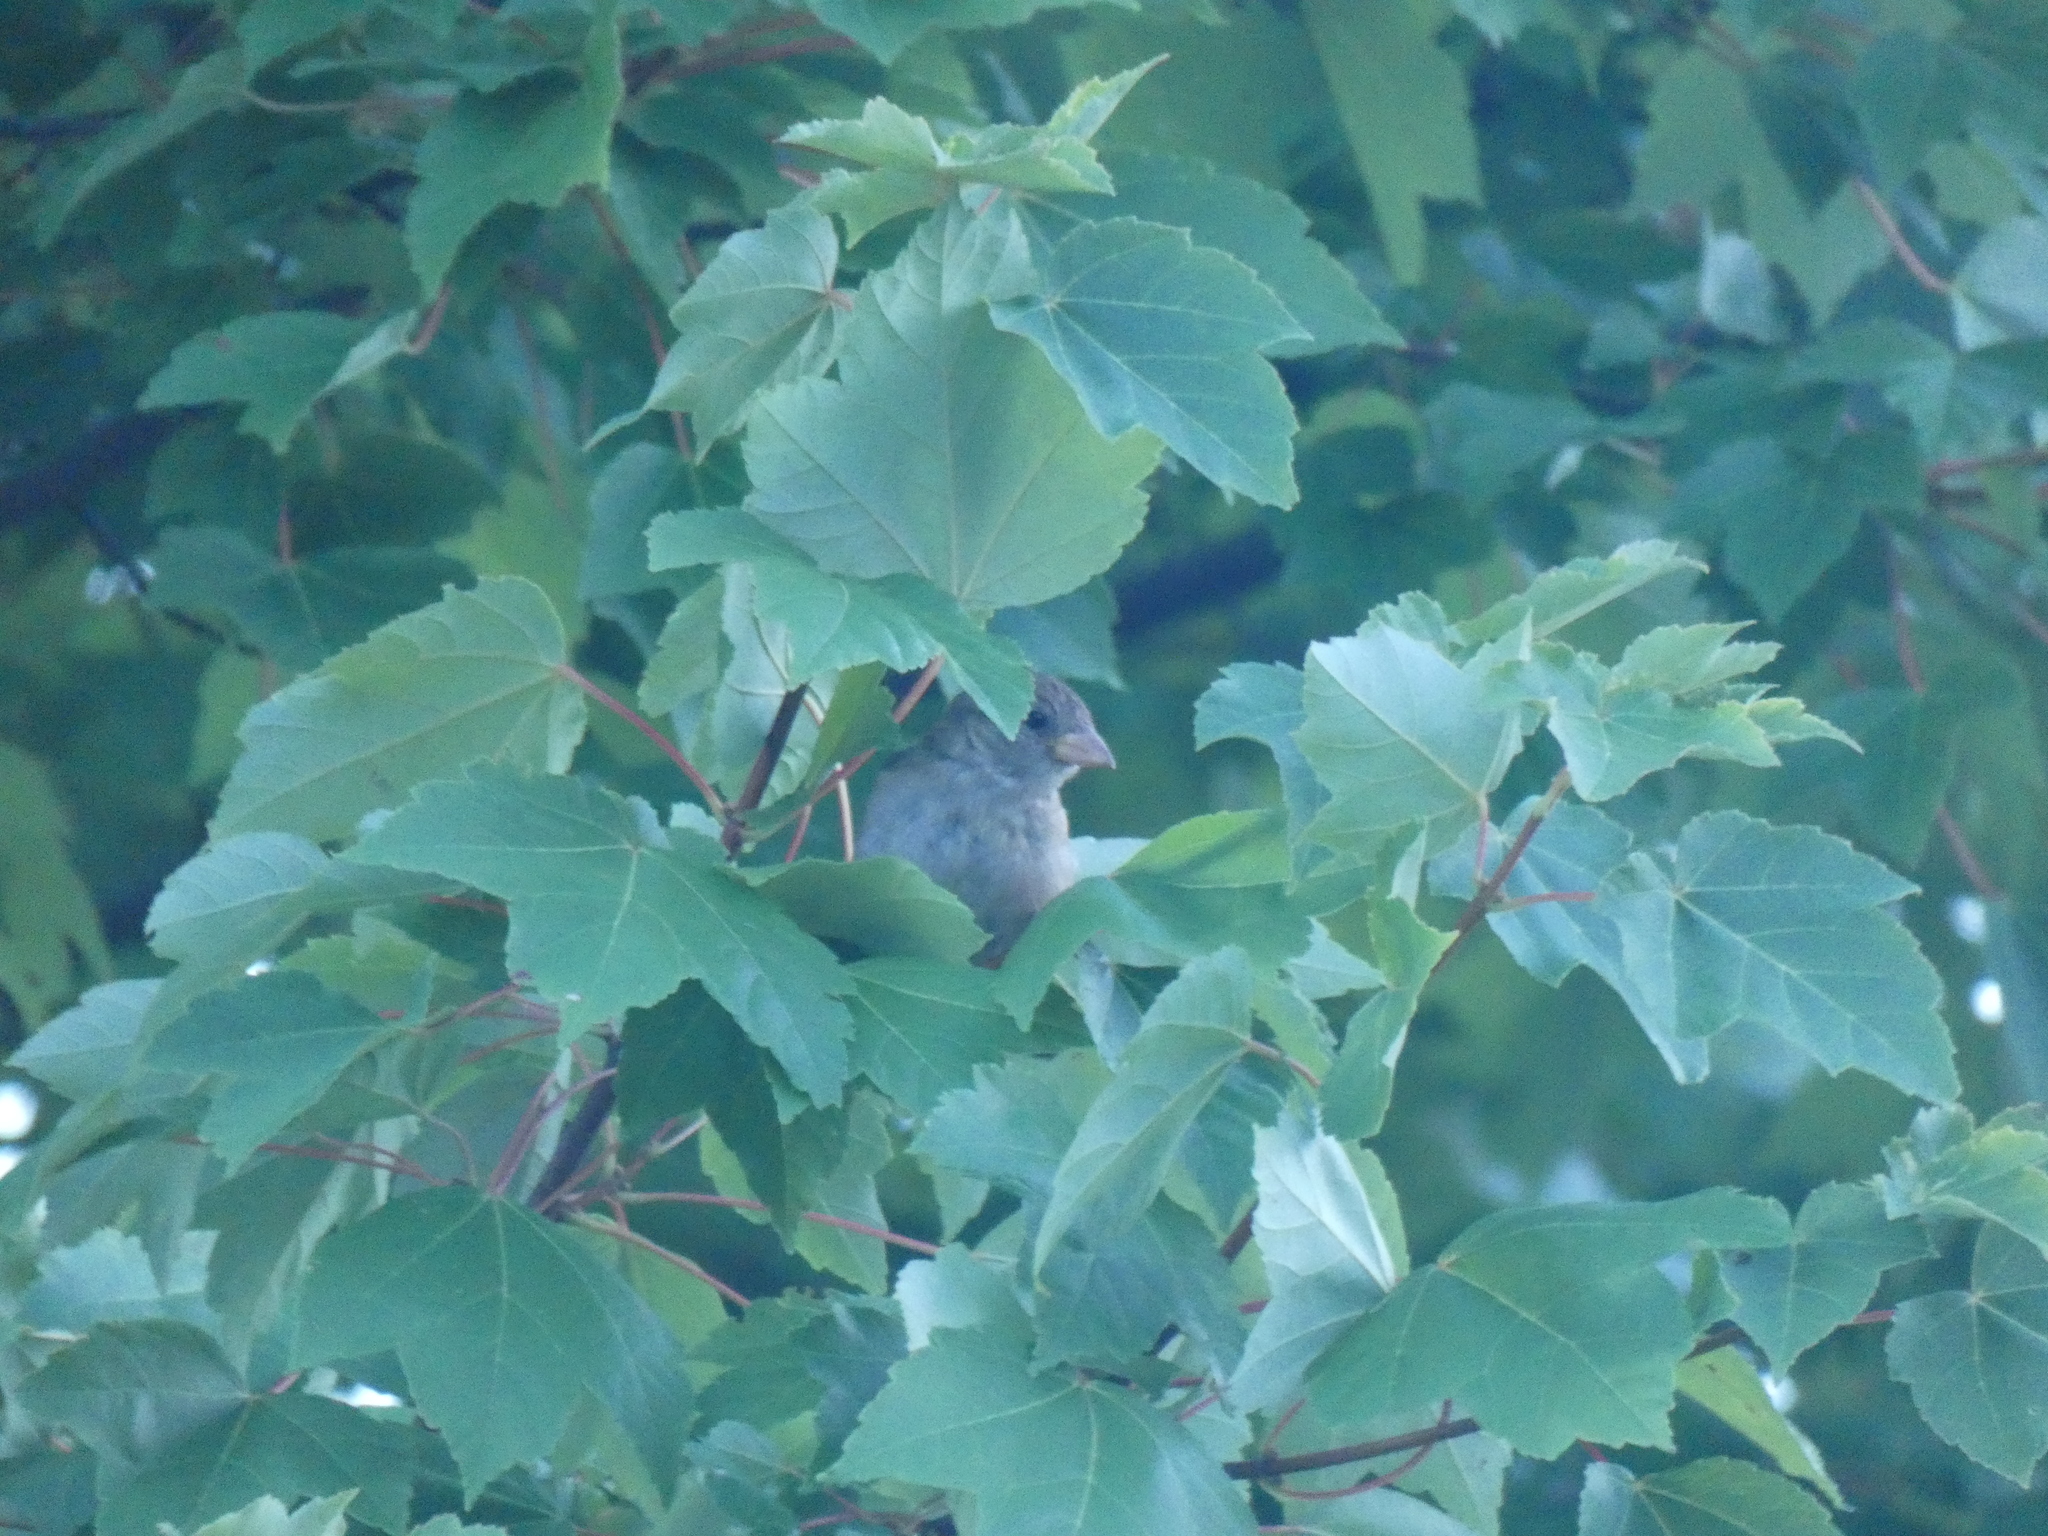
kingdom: Animalia
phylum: Chordata
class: Aves
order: Passeriformes
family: Passeridae
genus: Passer
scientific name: Passer domesticus
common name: House sparrow
